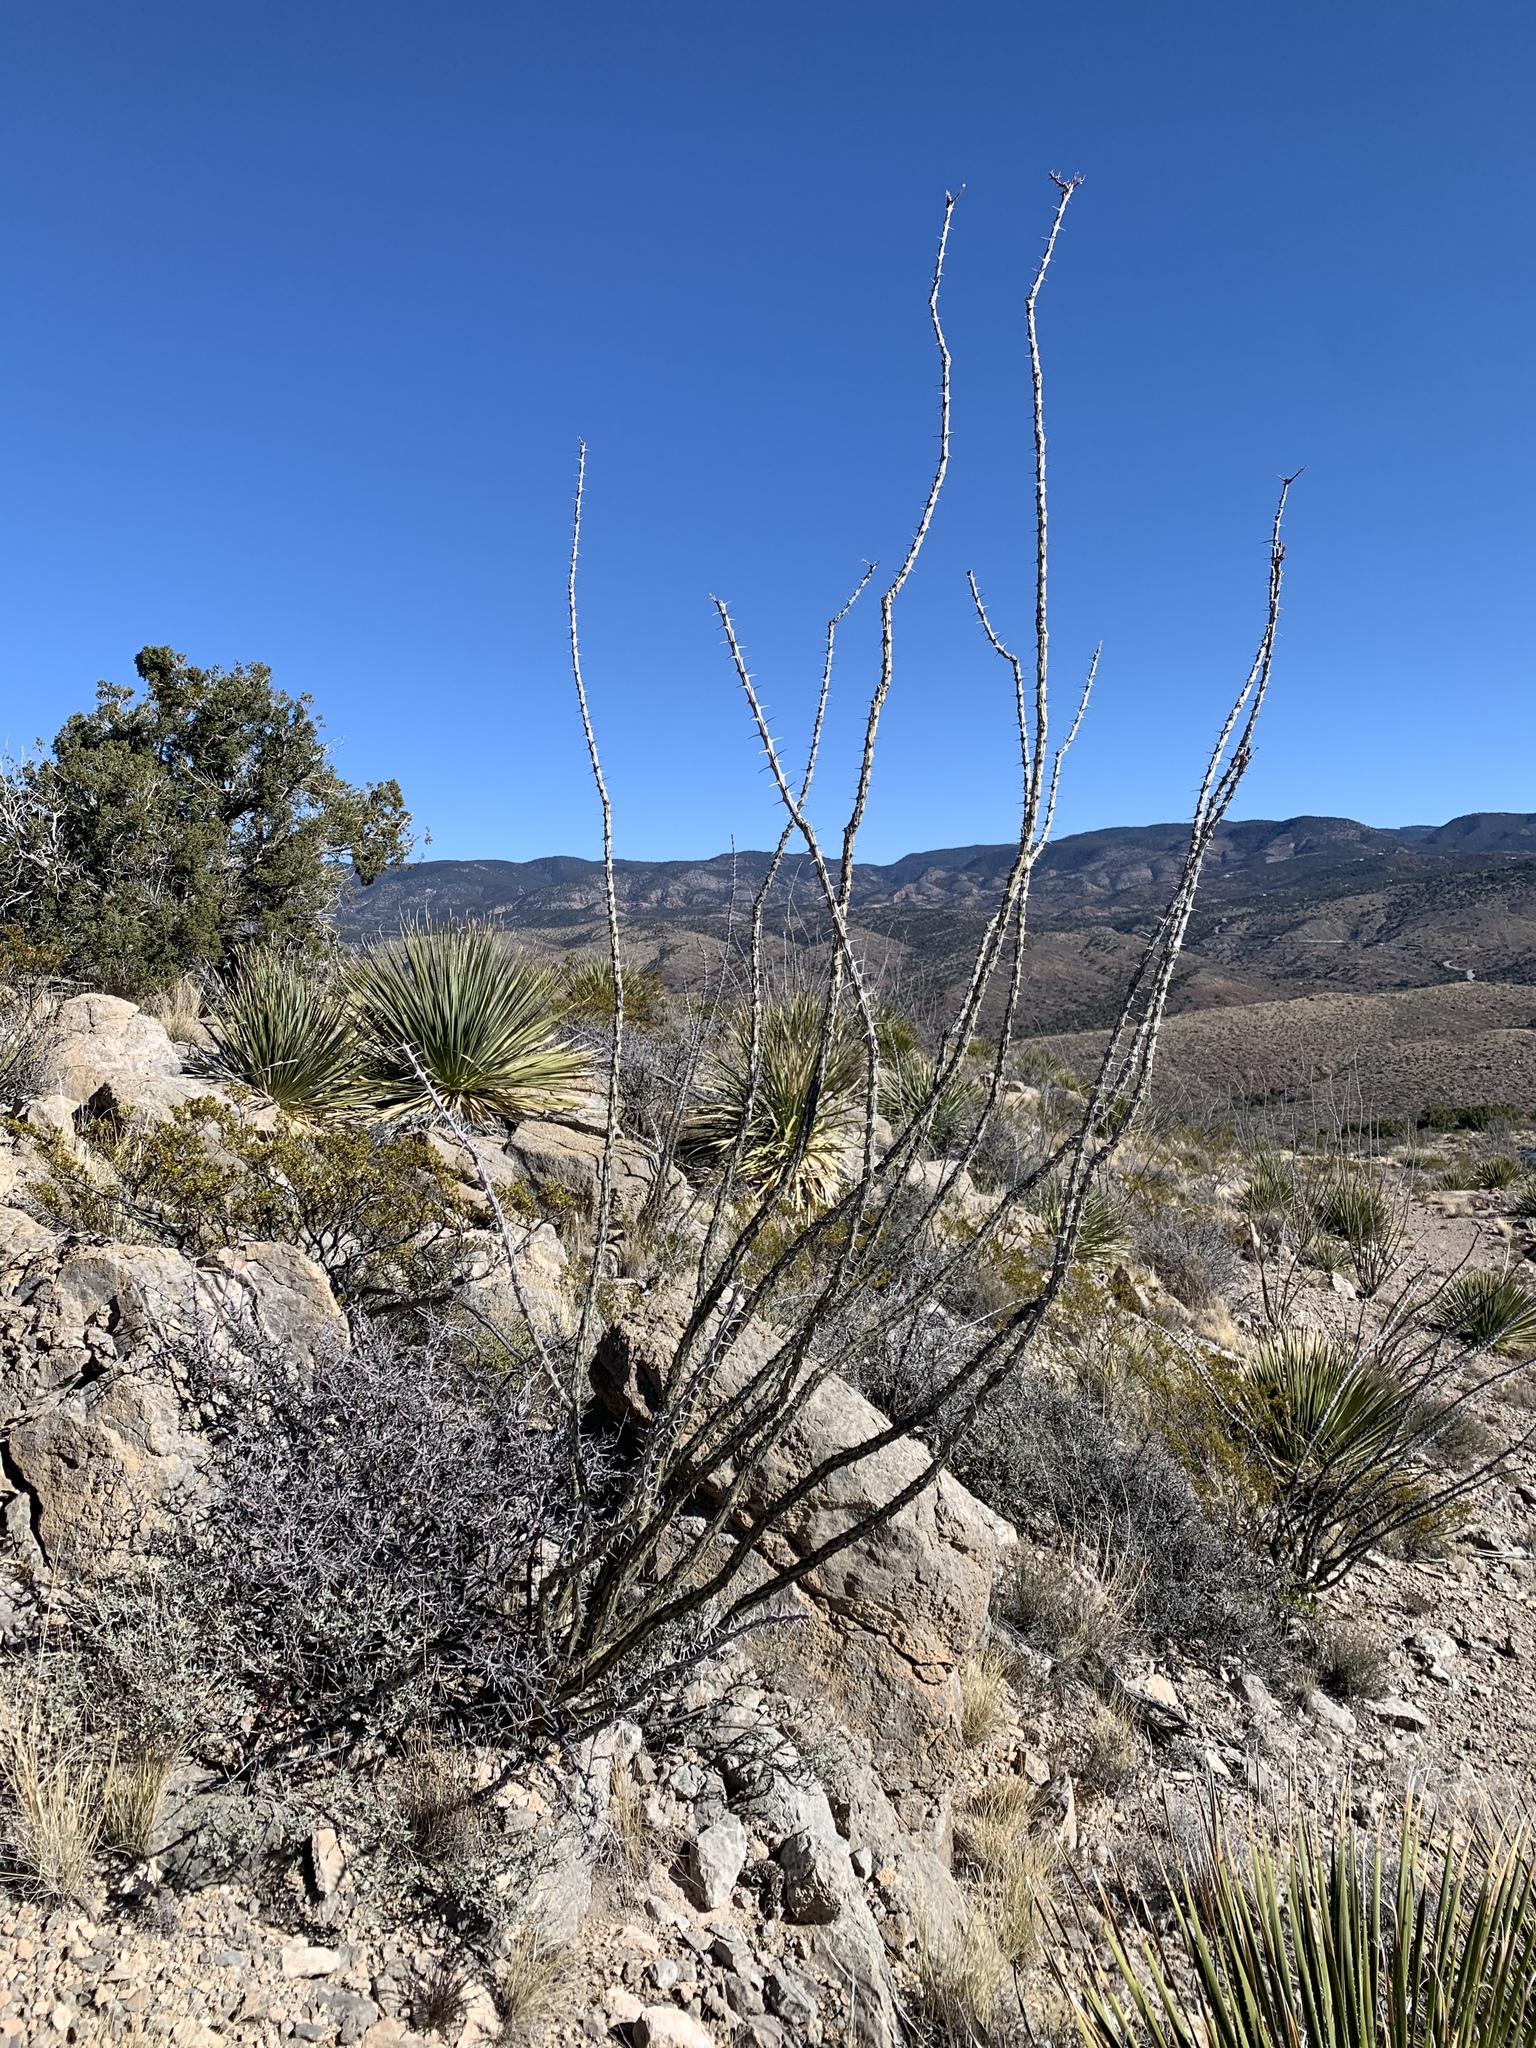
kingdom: Plantae
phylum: Tracheophyta
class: Magnoliopsida
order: Ericales
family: Fouquieriaceae
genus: Fouquieria
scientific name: Fouquieria splendens
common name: Vine-cactus
